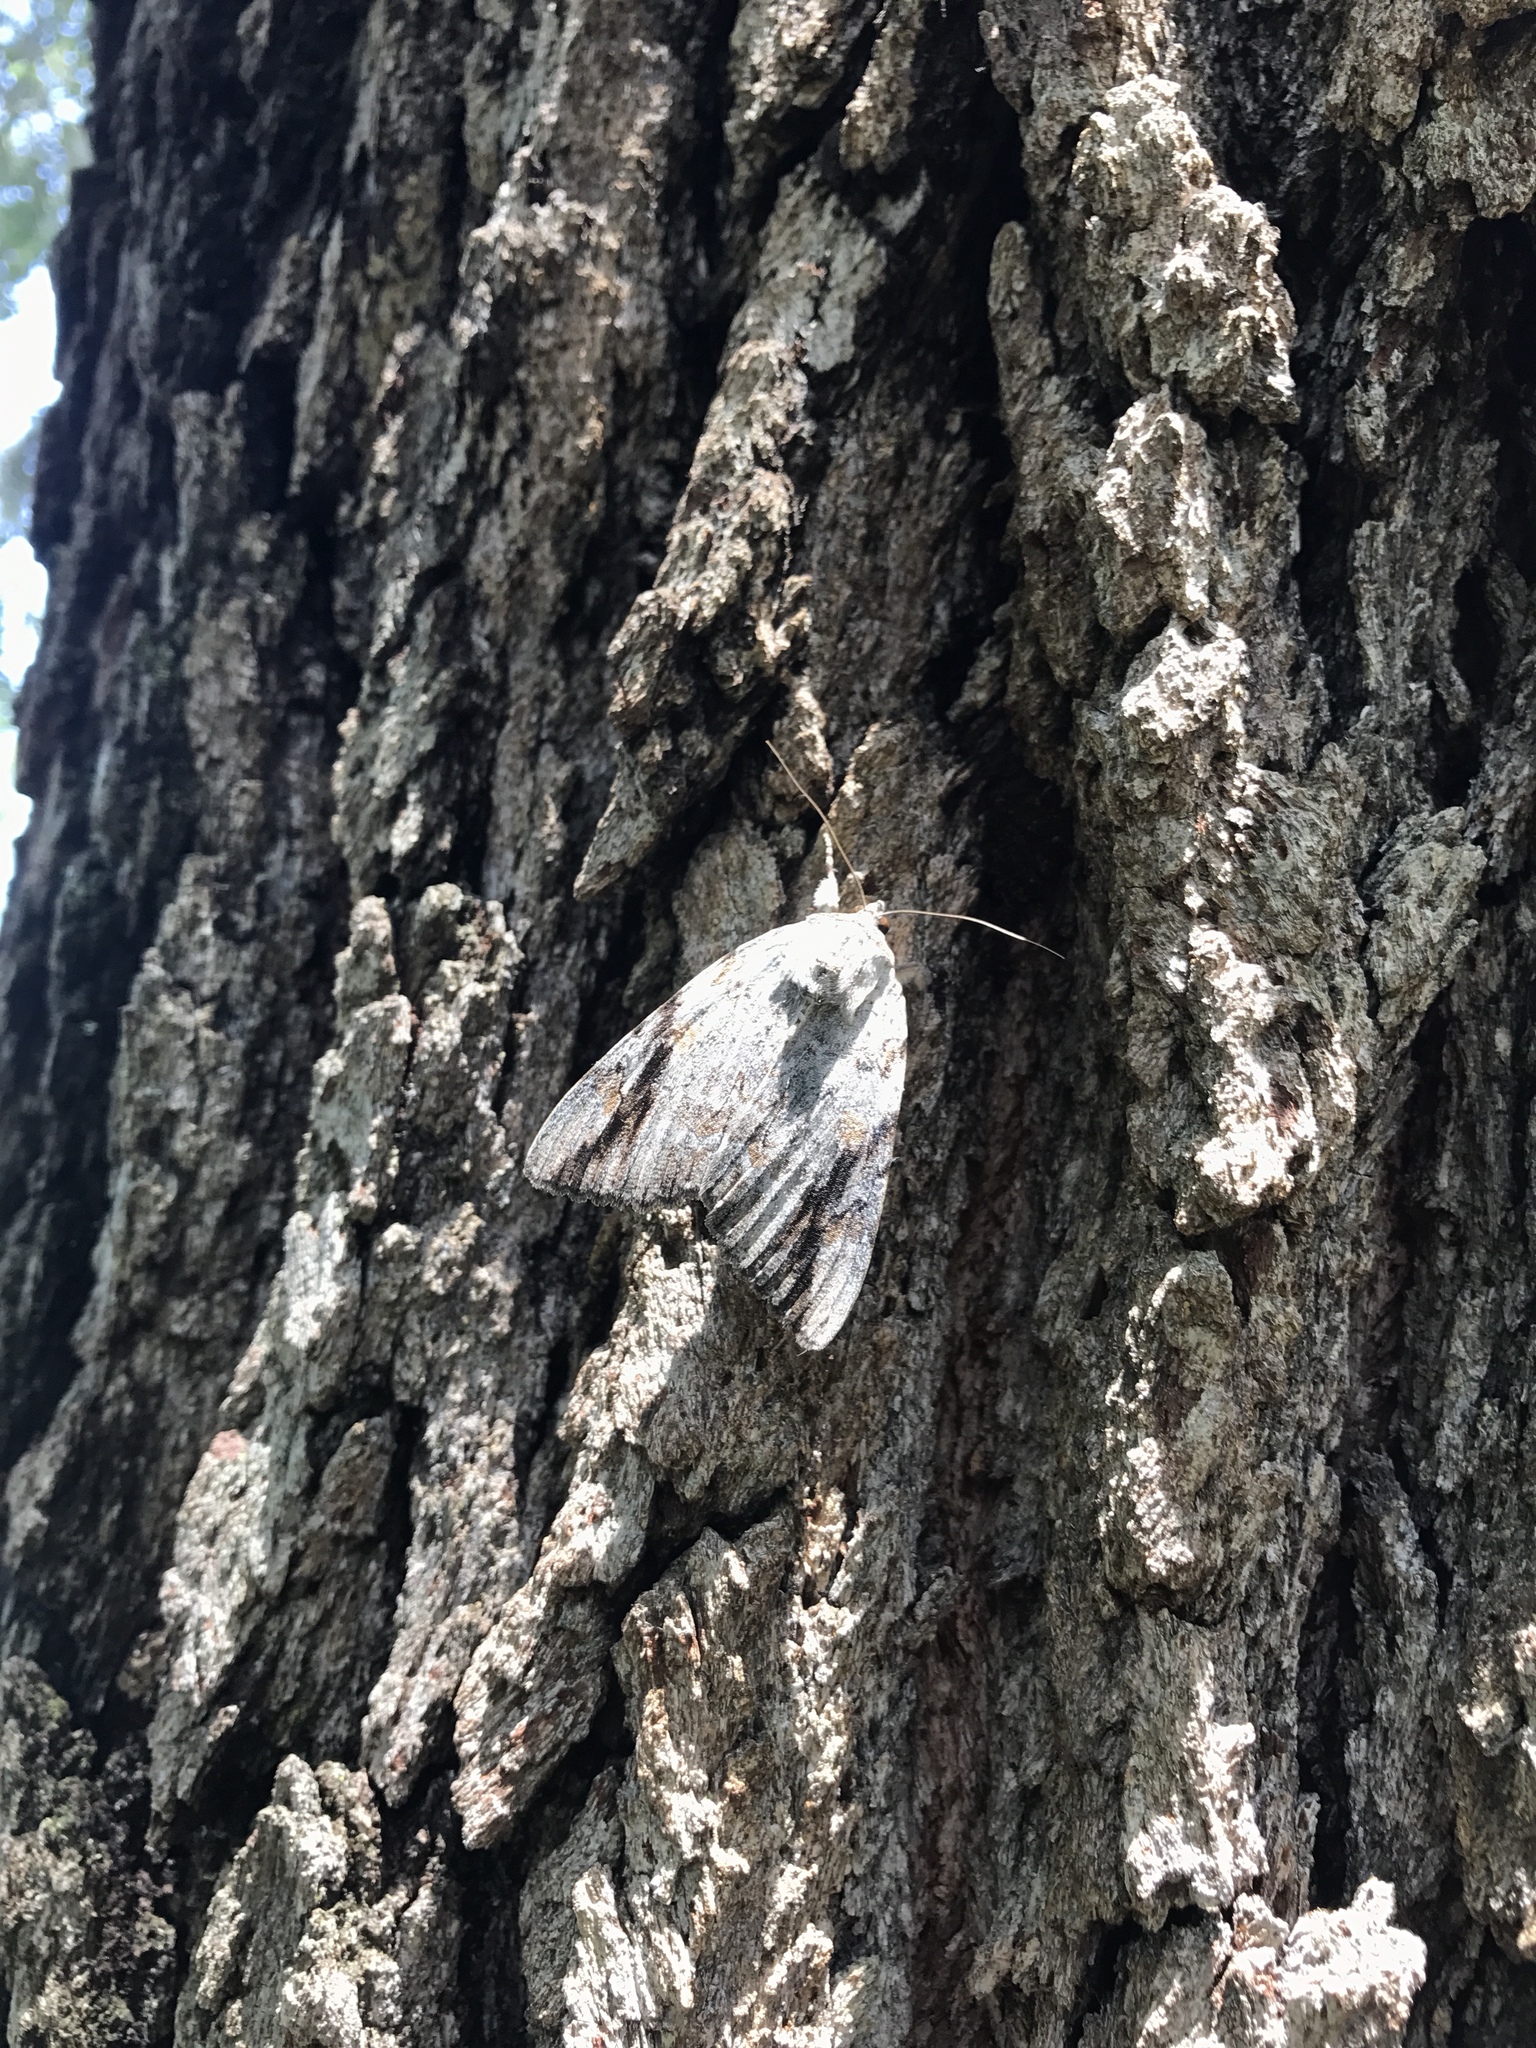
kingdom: Animalia
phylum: Arthropoda
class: Insecta
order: Lepidoptera
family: Erebidae
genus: Catocala
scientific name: Catocala maestosa
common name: Sad underwing
